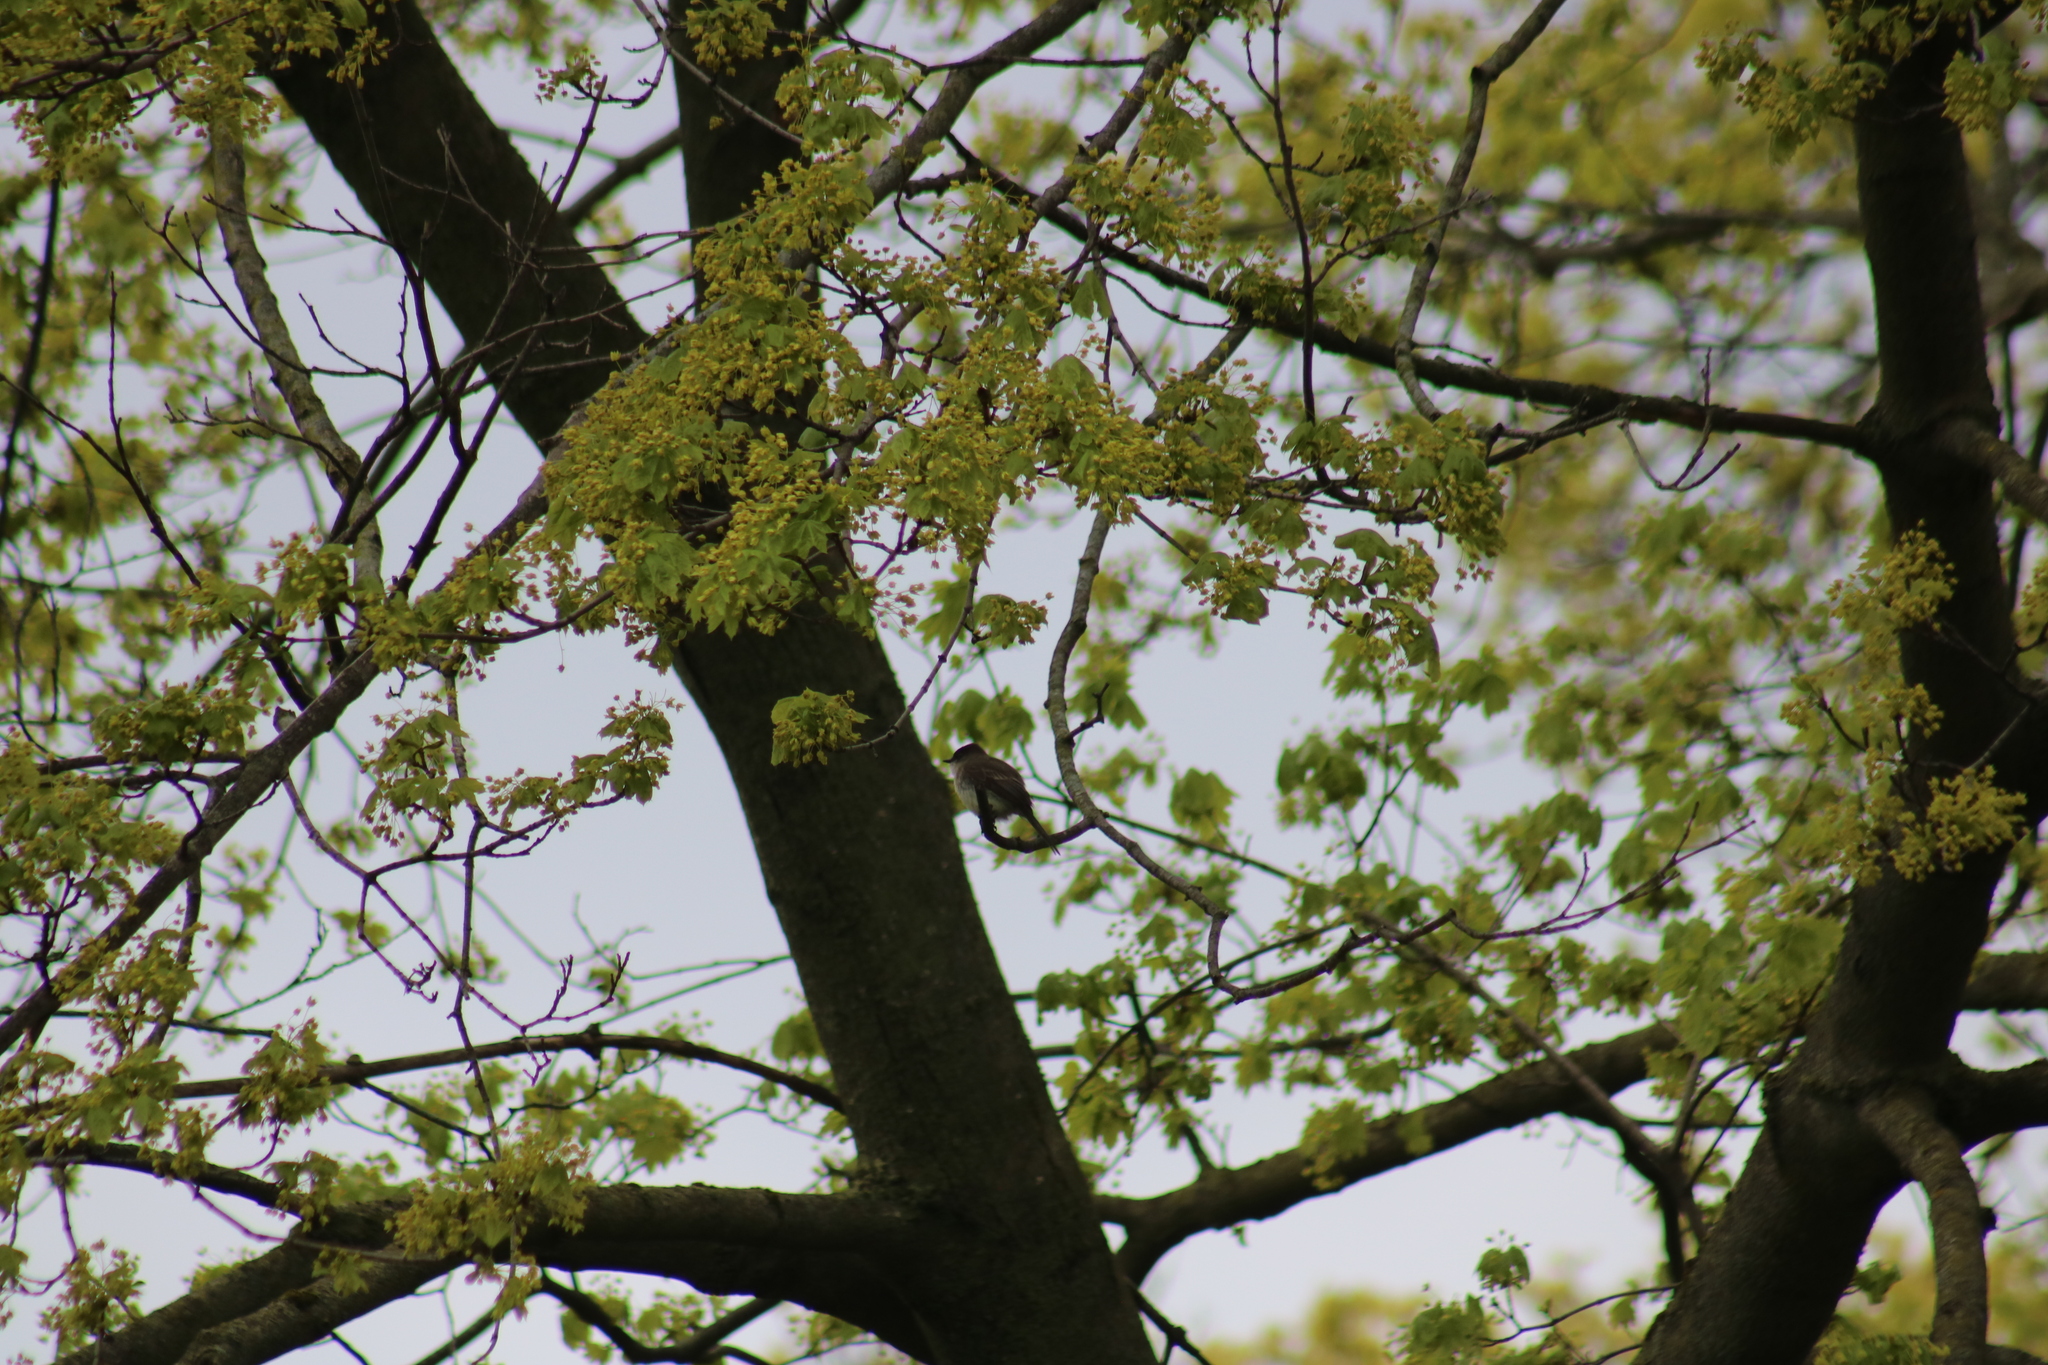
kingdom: Animalia
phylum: Chordata
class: Aves
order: Passeriformes
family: Tyrannidae
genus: Sayornis
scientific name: Sayornis phoebe
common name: Eastern phoebe
